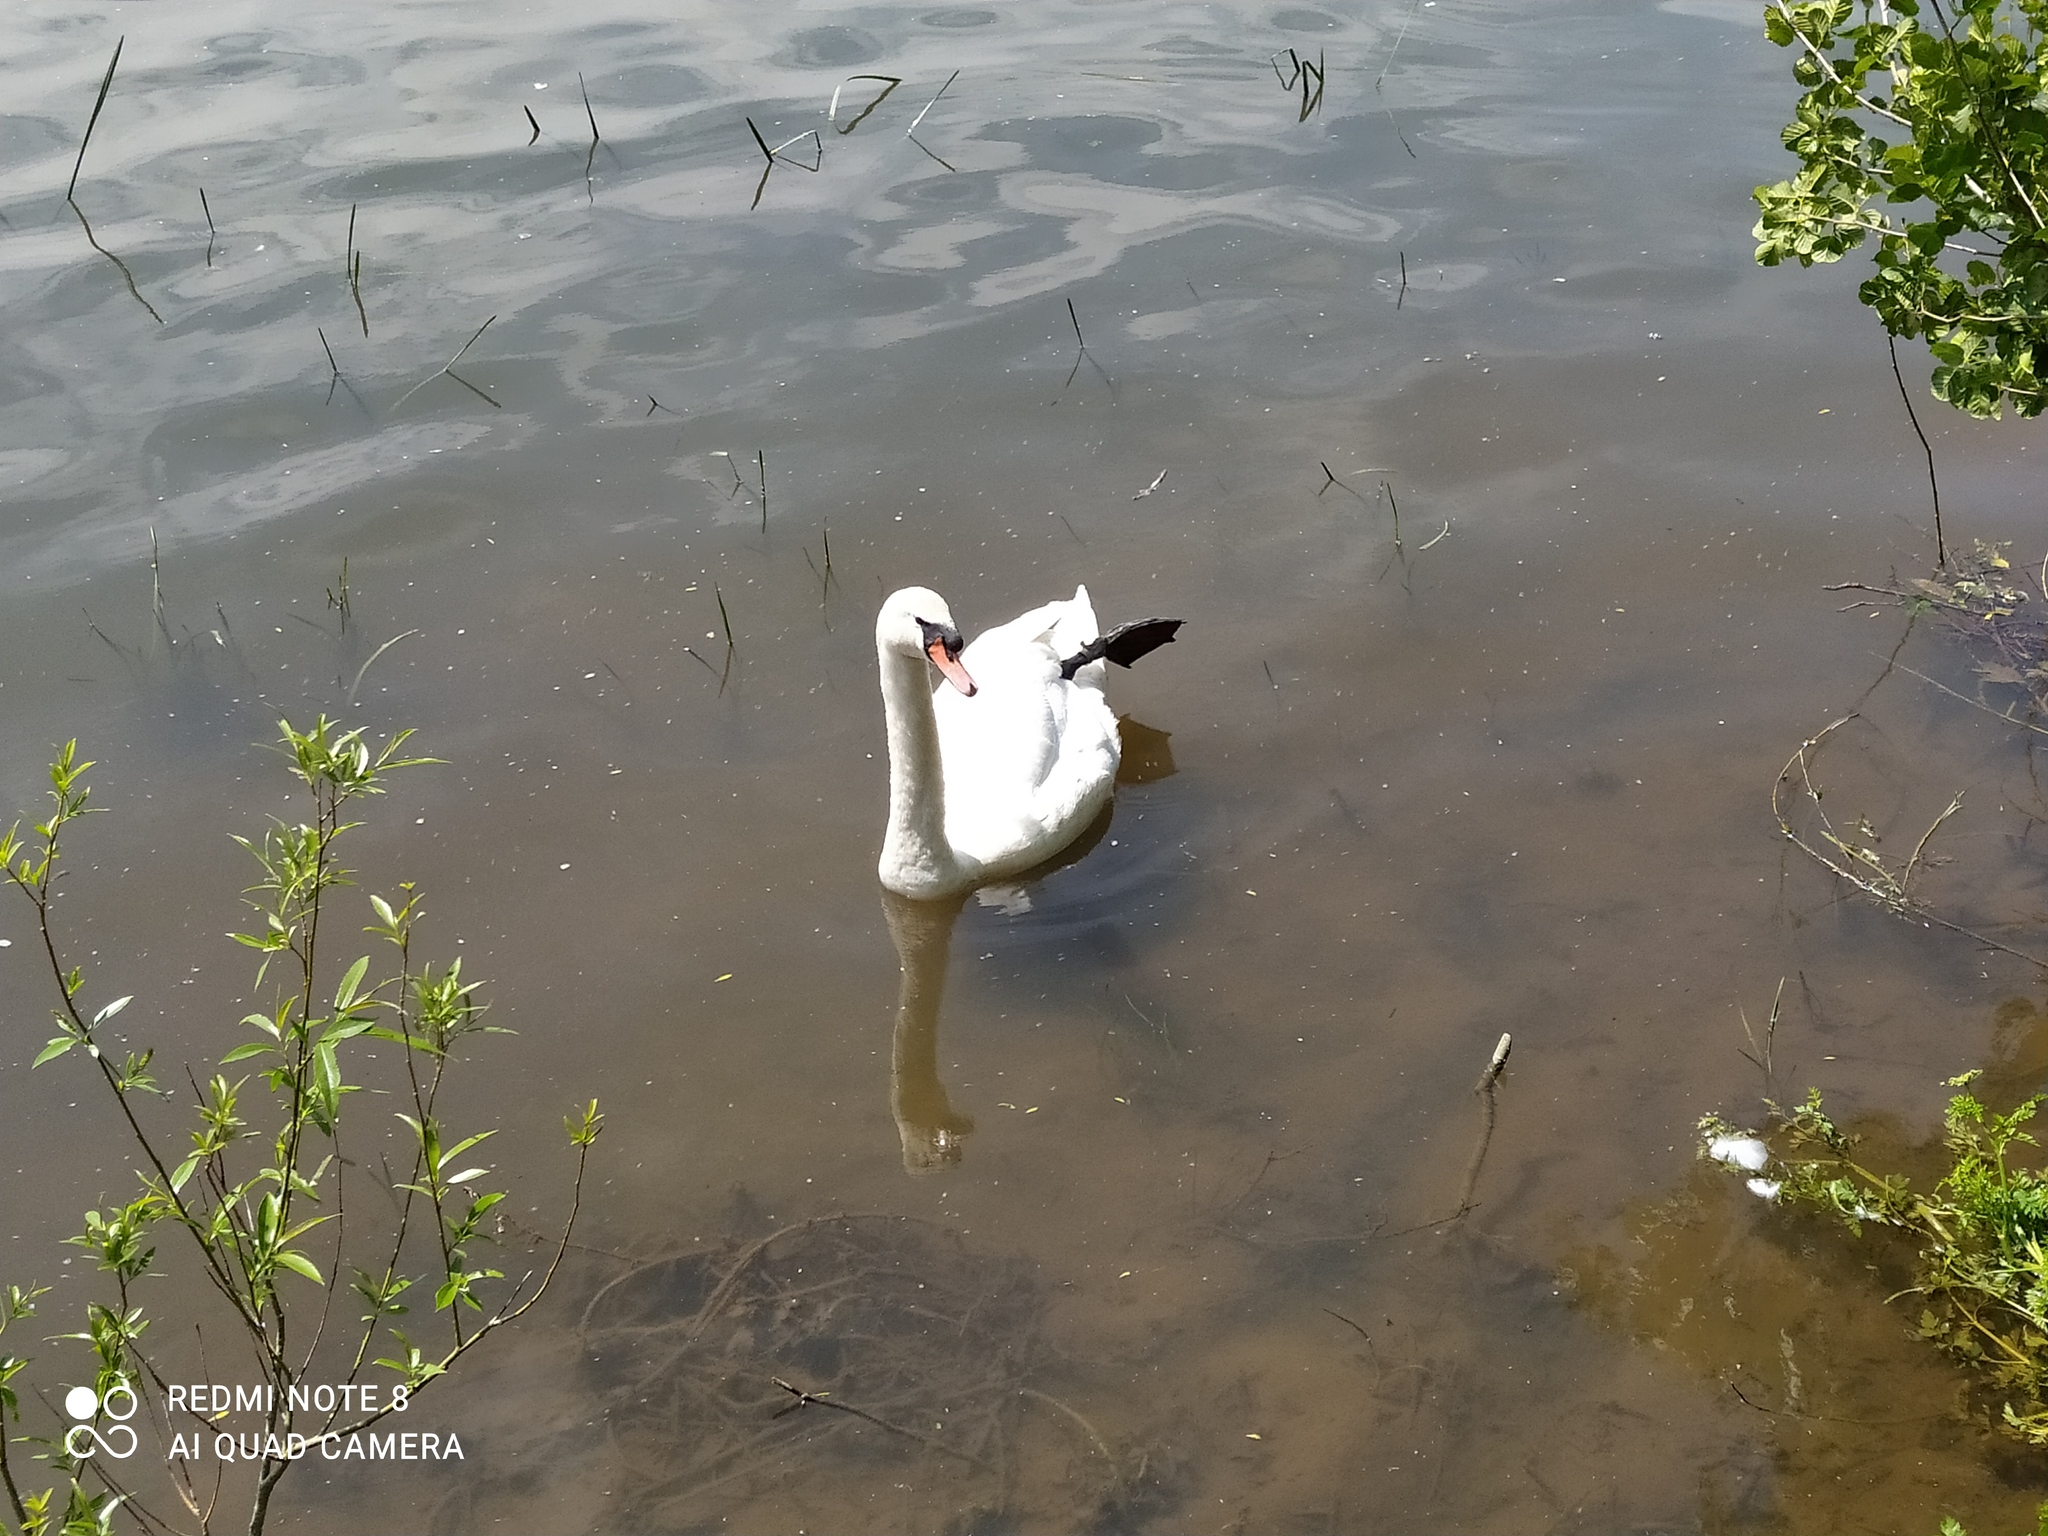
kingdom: Animalia
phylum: Chordata
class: Aves
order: Anseriformes
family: Anatidae
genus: Cygnus
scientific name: Cygnus olor
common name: Mute swan
